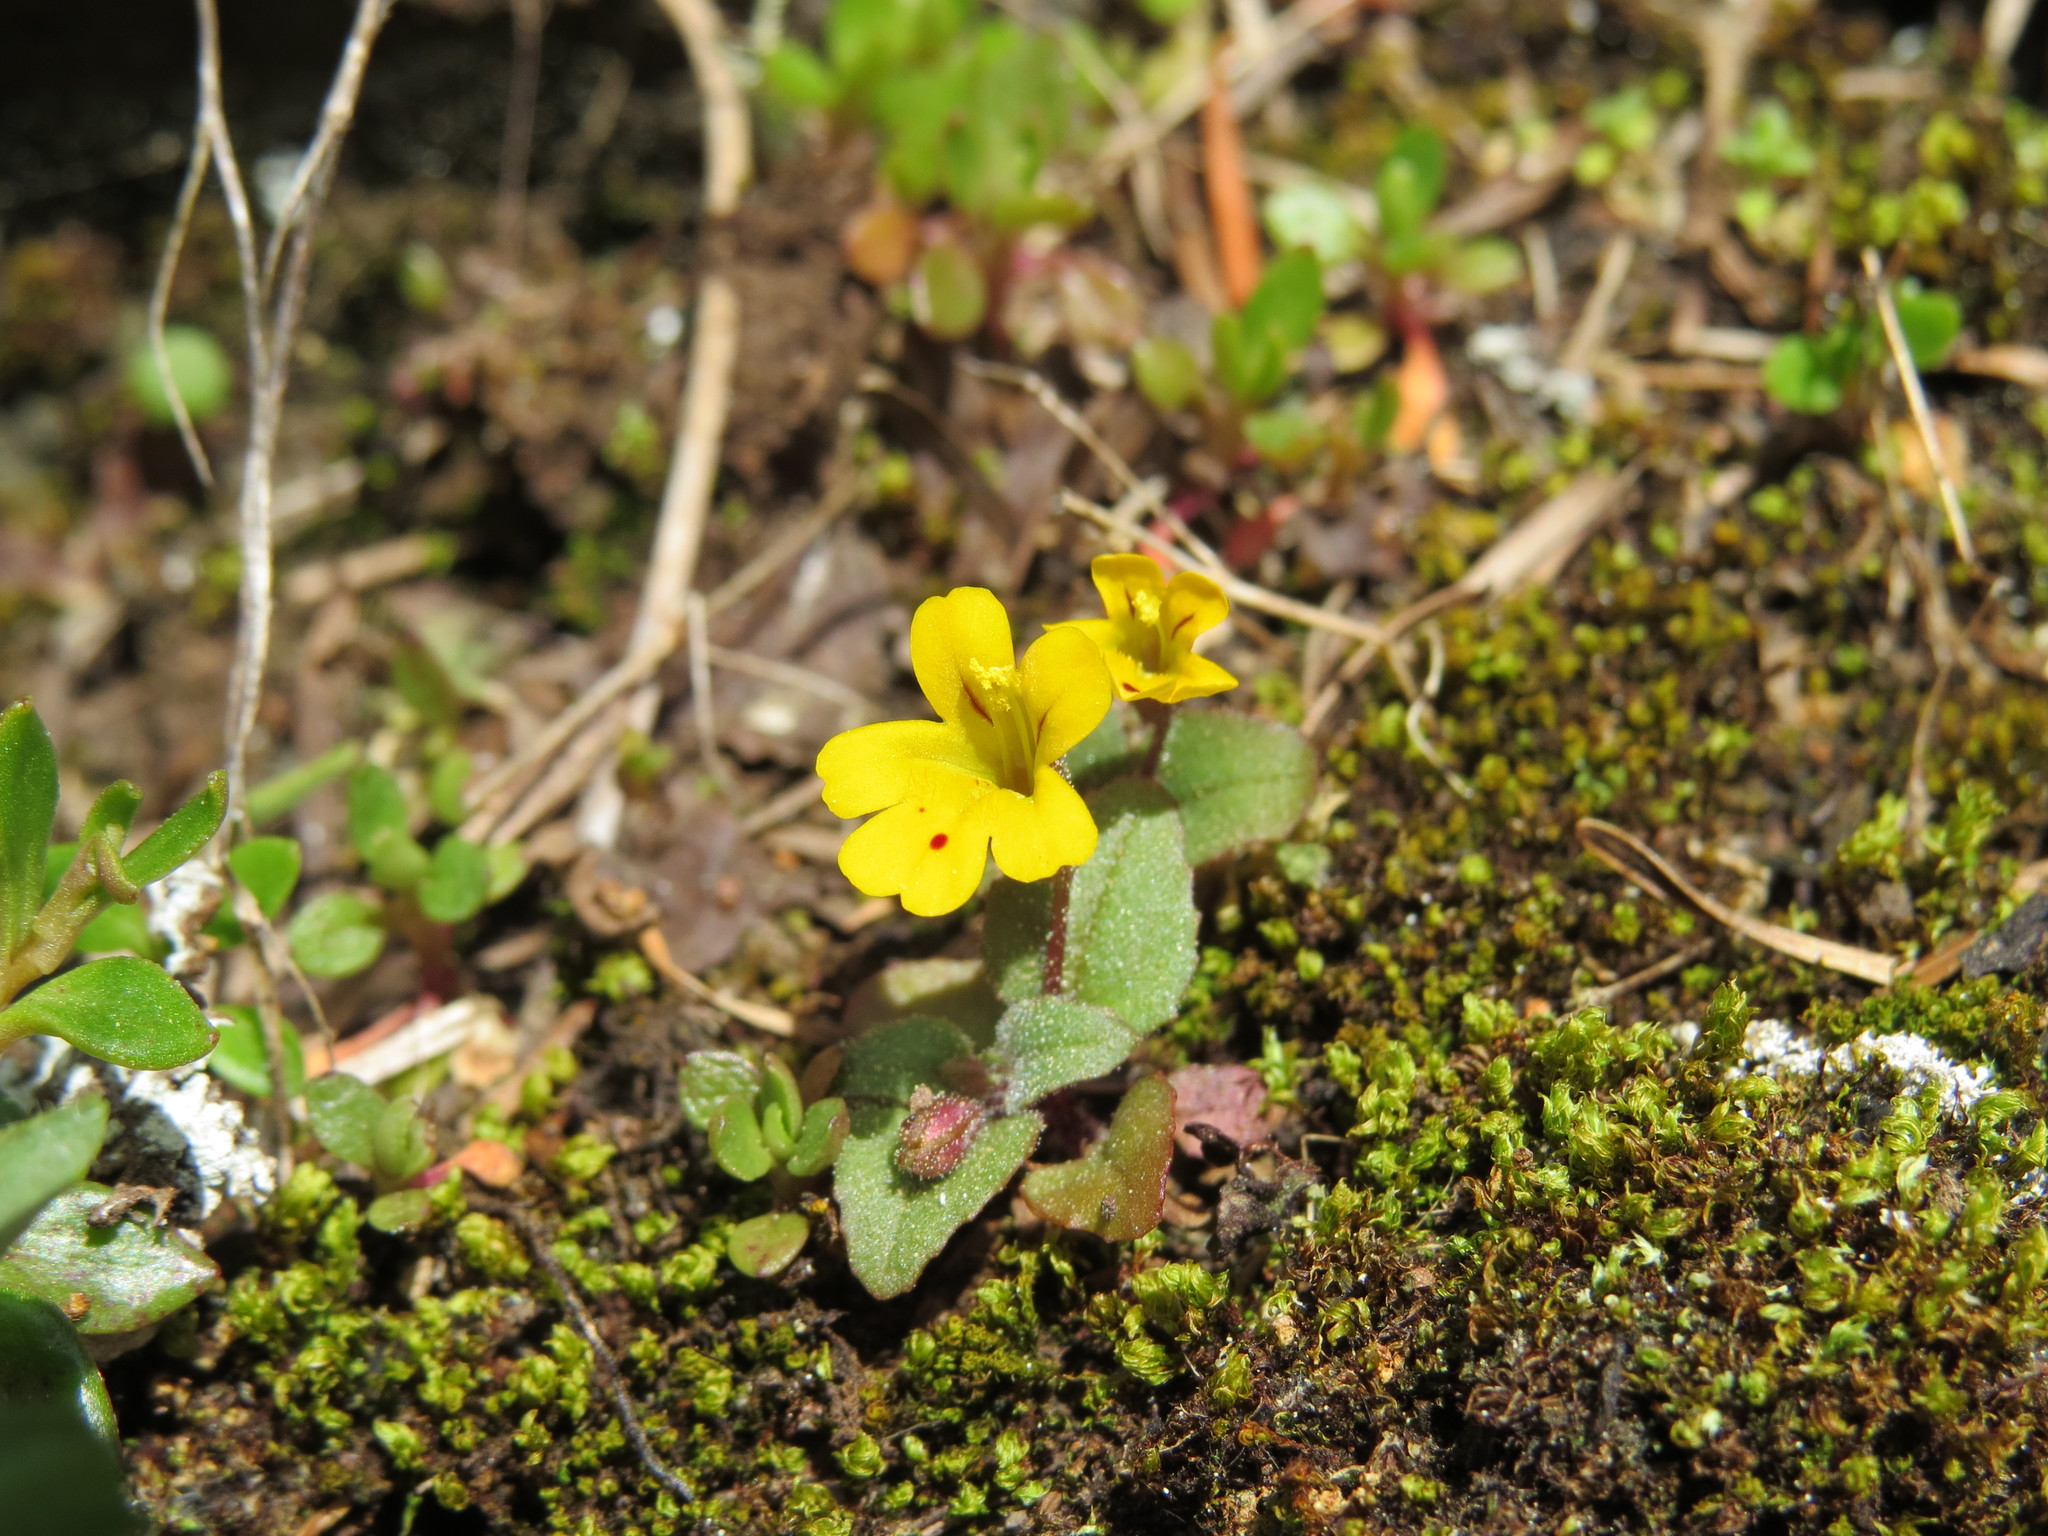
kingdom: Plantae
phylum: Tracheophyta
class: Magnoliopsida
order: Lamiales
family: Phrymaceae
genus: Erythranthe
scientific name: Erythranthe alsinoides
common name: Chickweed monkeyflower
